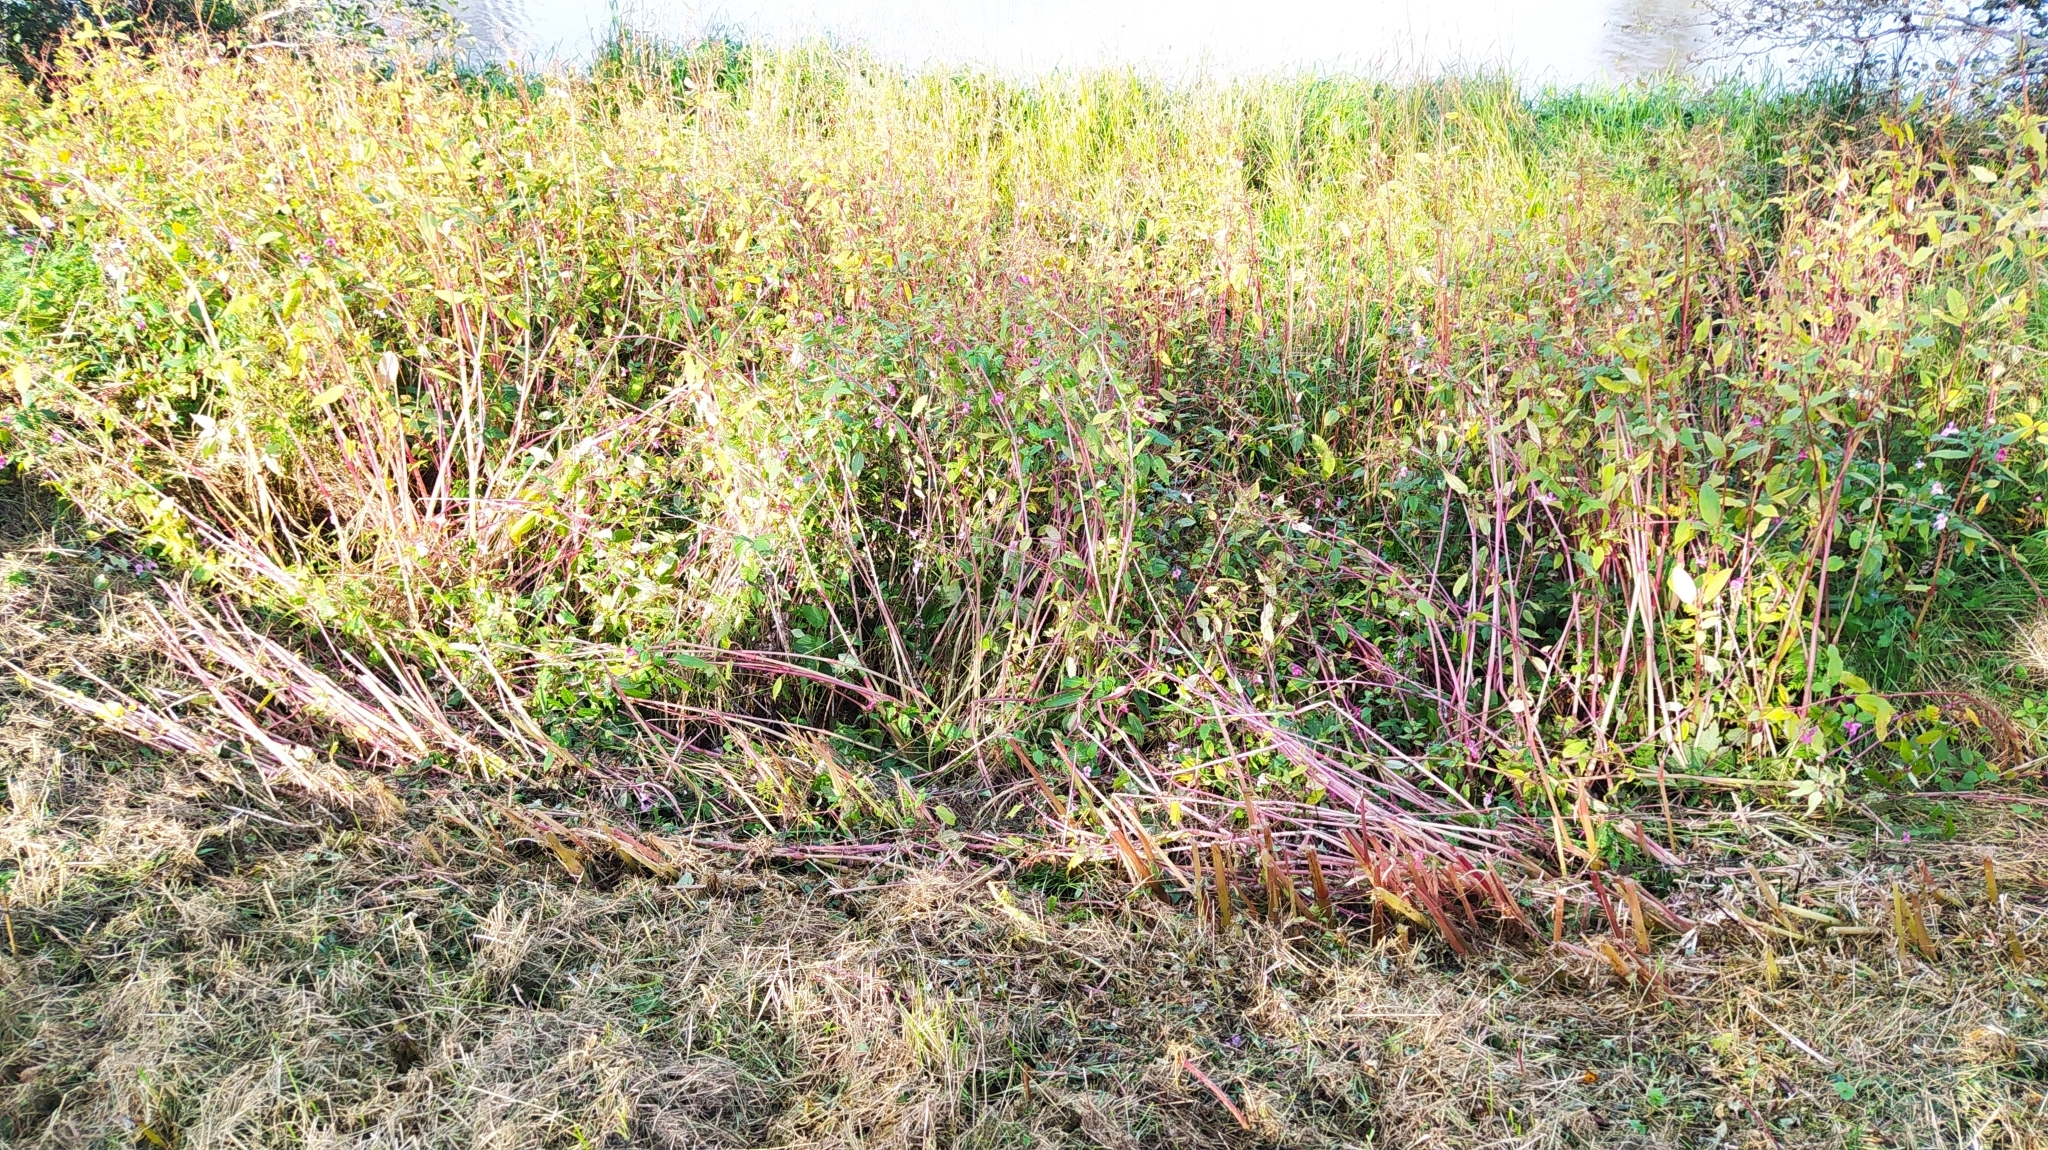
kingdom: Plantae
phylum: Tracheophyta
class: Magnoliopsida
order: Ericales
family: Balsaminaceae
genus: Impatiens
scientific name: Impatiens glandulifera
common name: Himalayan balsam
